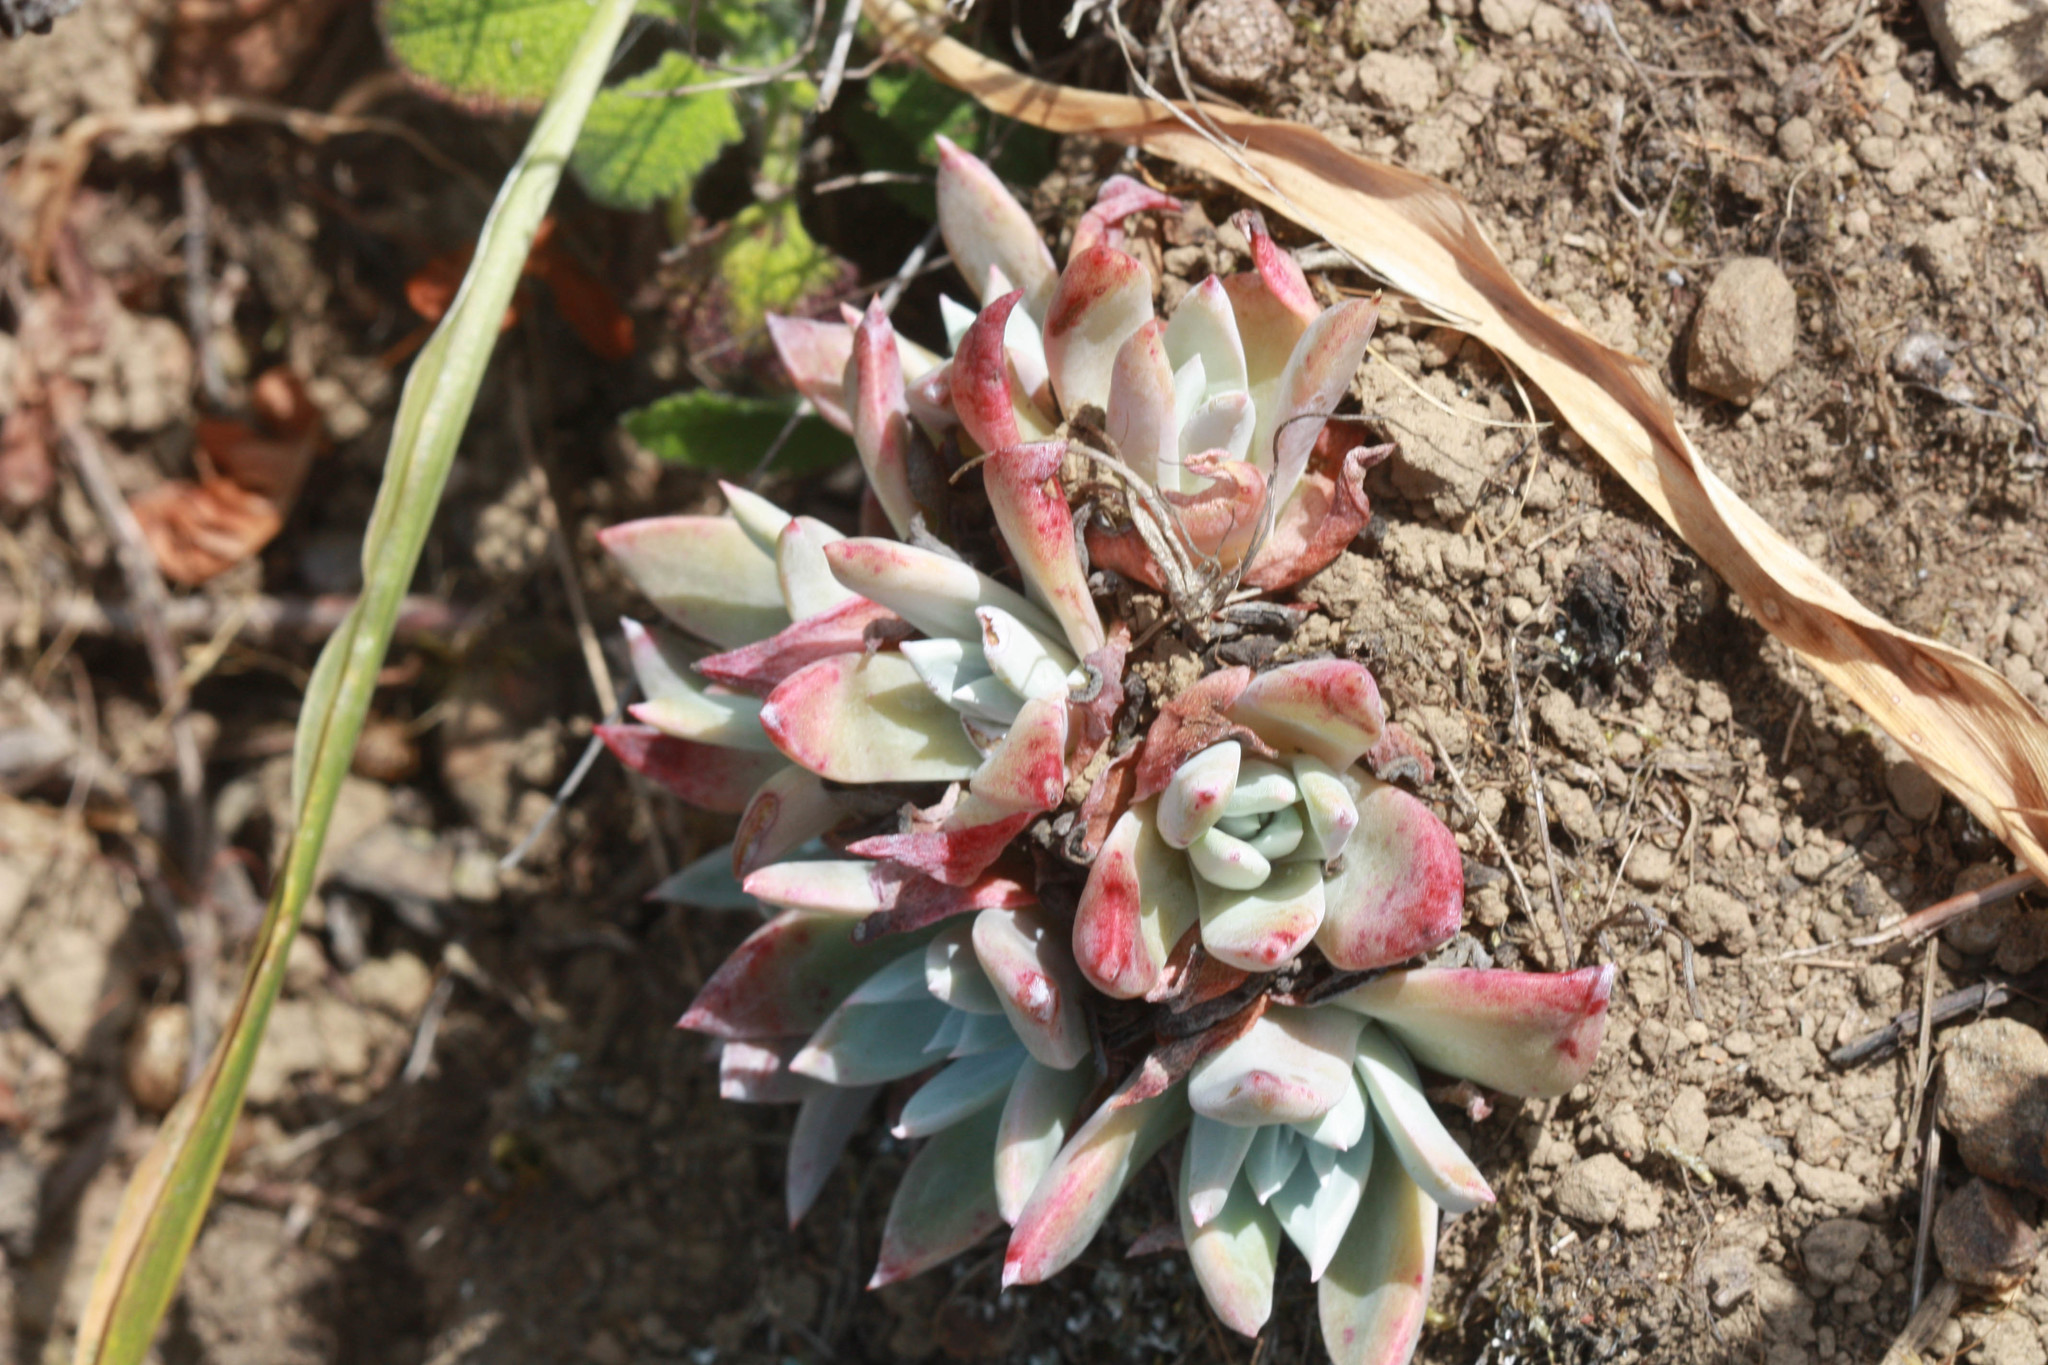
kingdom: Plantae
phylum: Tracheophyta
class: Magnoliopsida
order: Saxifragales
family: Crassulaceae
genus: Dudleya
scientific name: Dudleya farinosa
